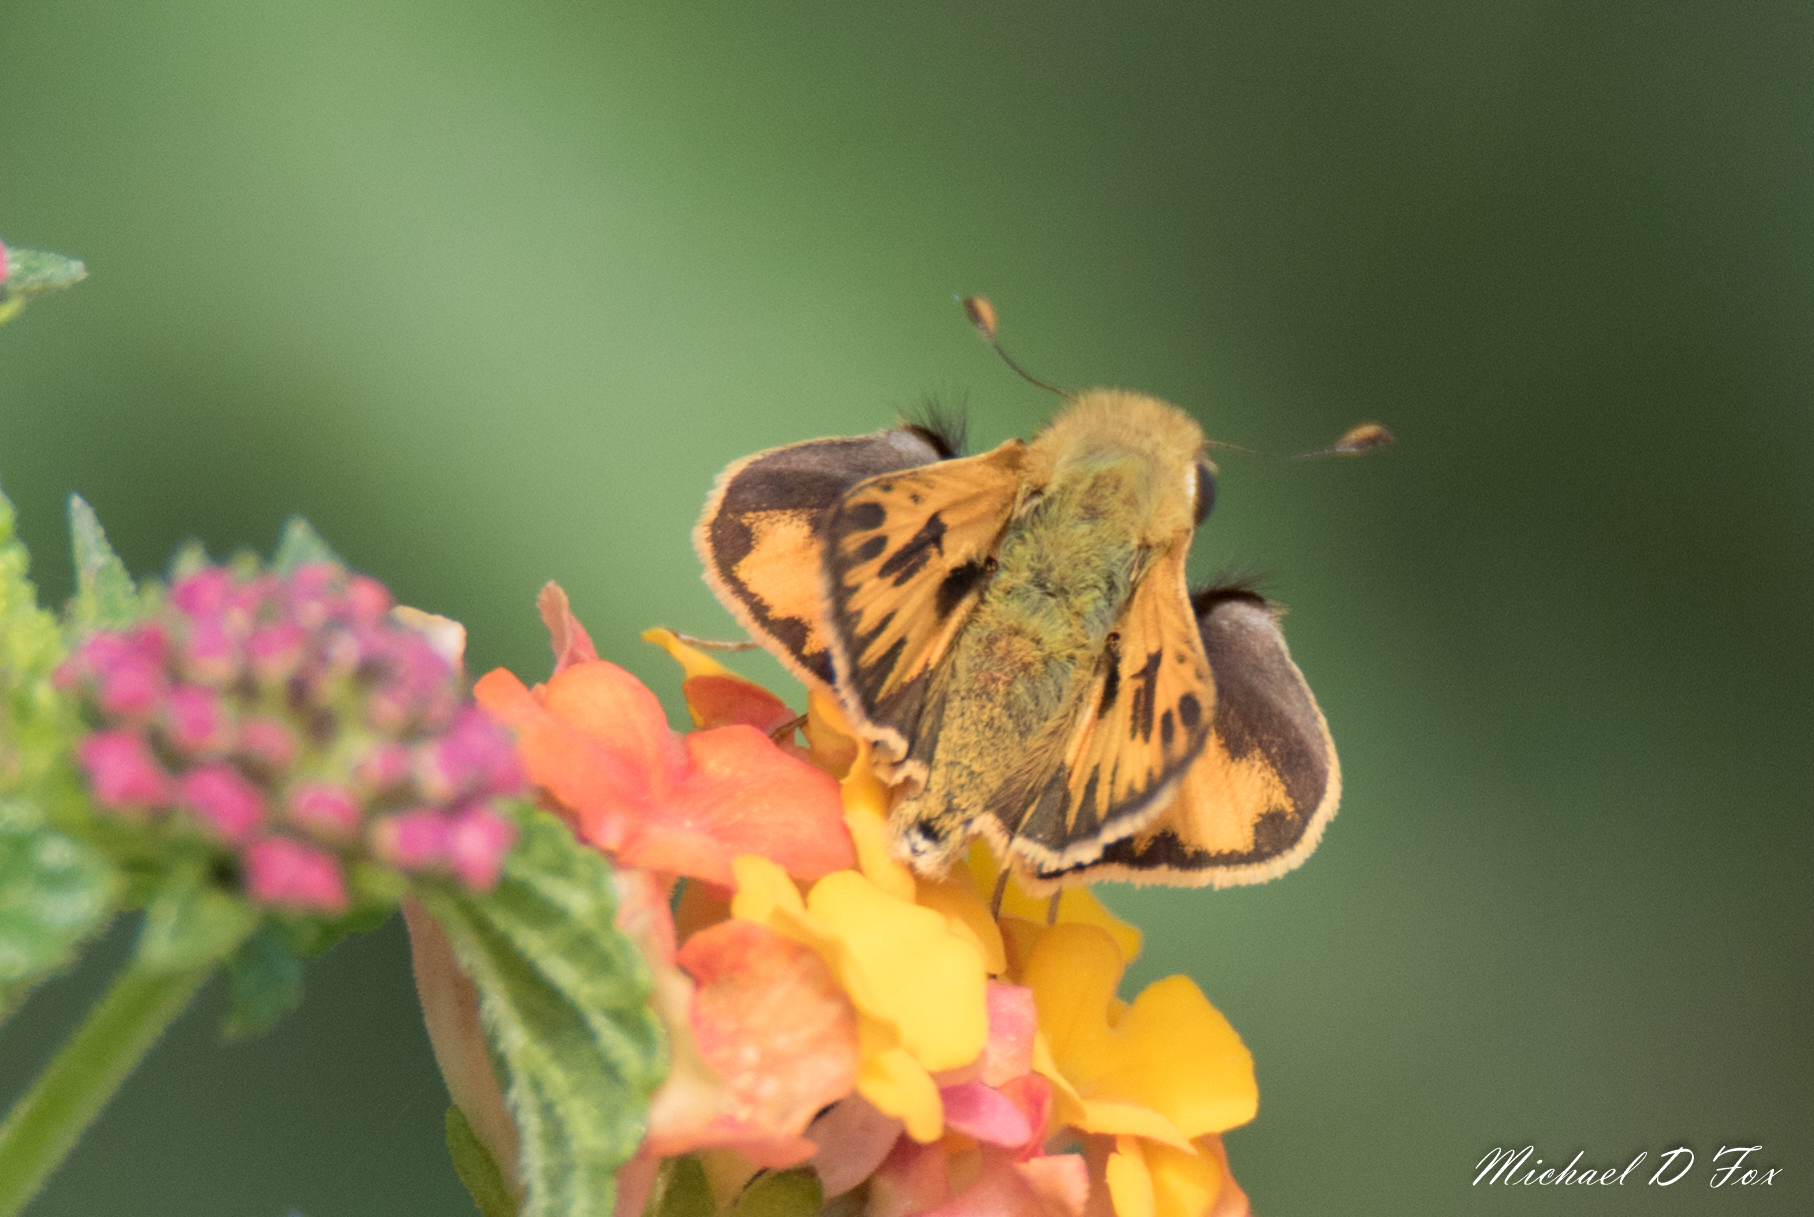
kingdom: Animalia
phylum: Arthropoda
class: Insecta
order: Lepidoptera
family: Hesperiidae
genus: Hylephila
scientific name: Hylephila phyleus
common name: Fiery skipper
